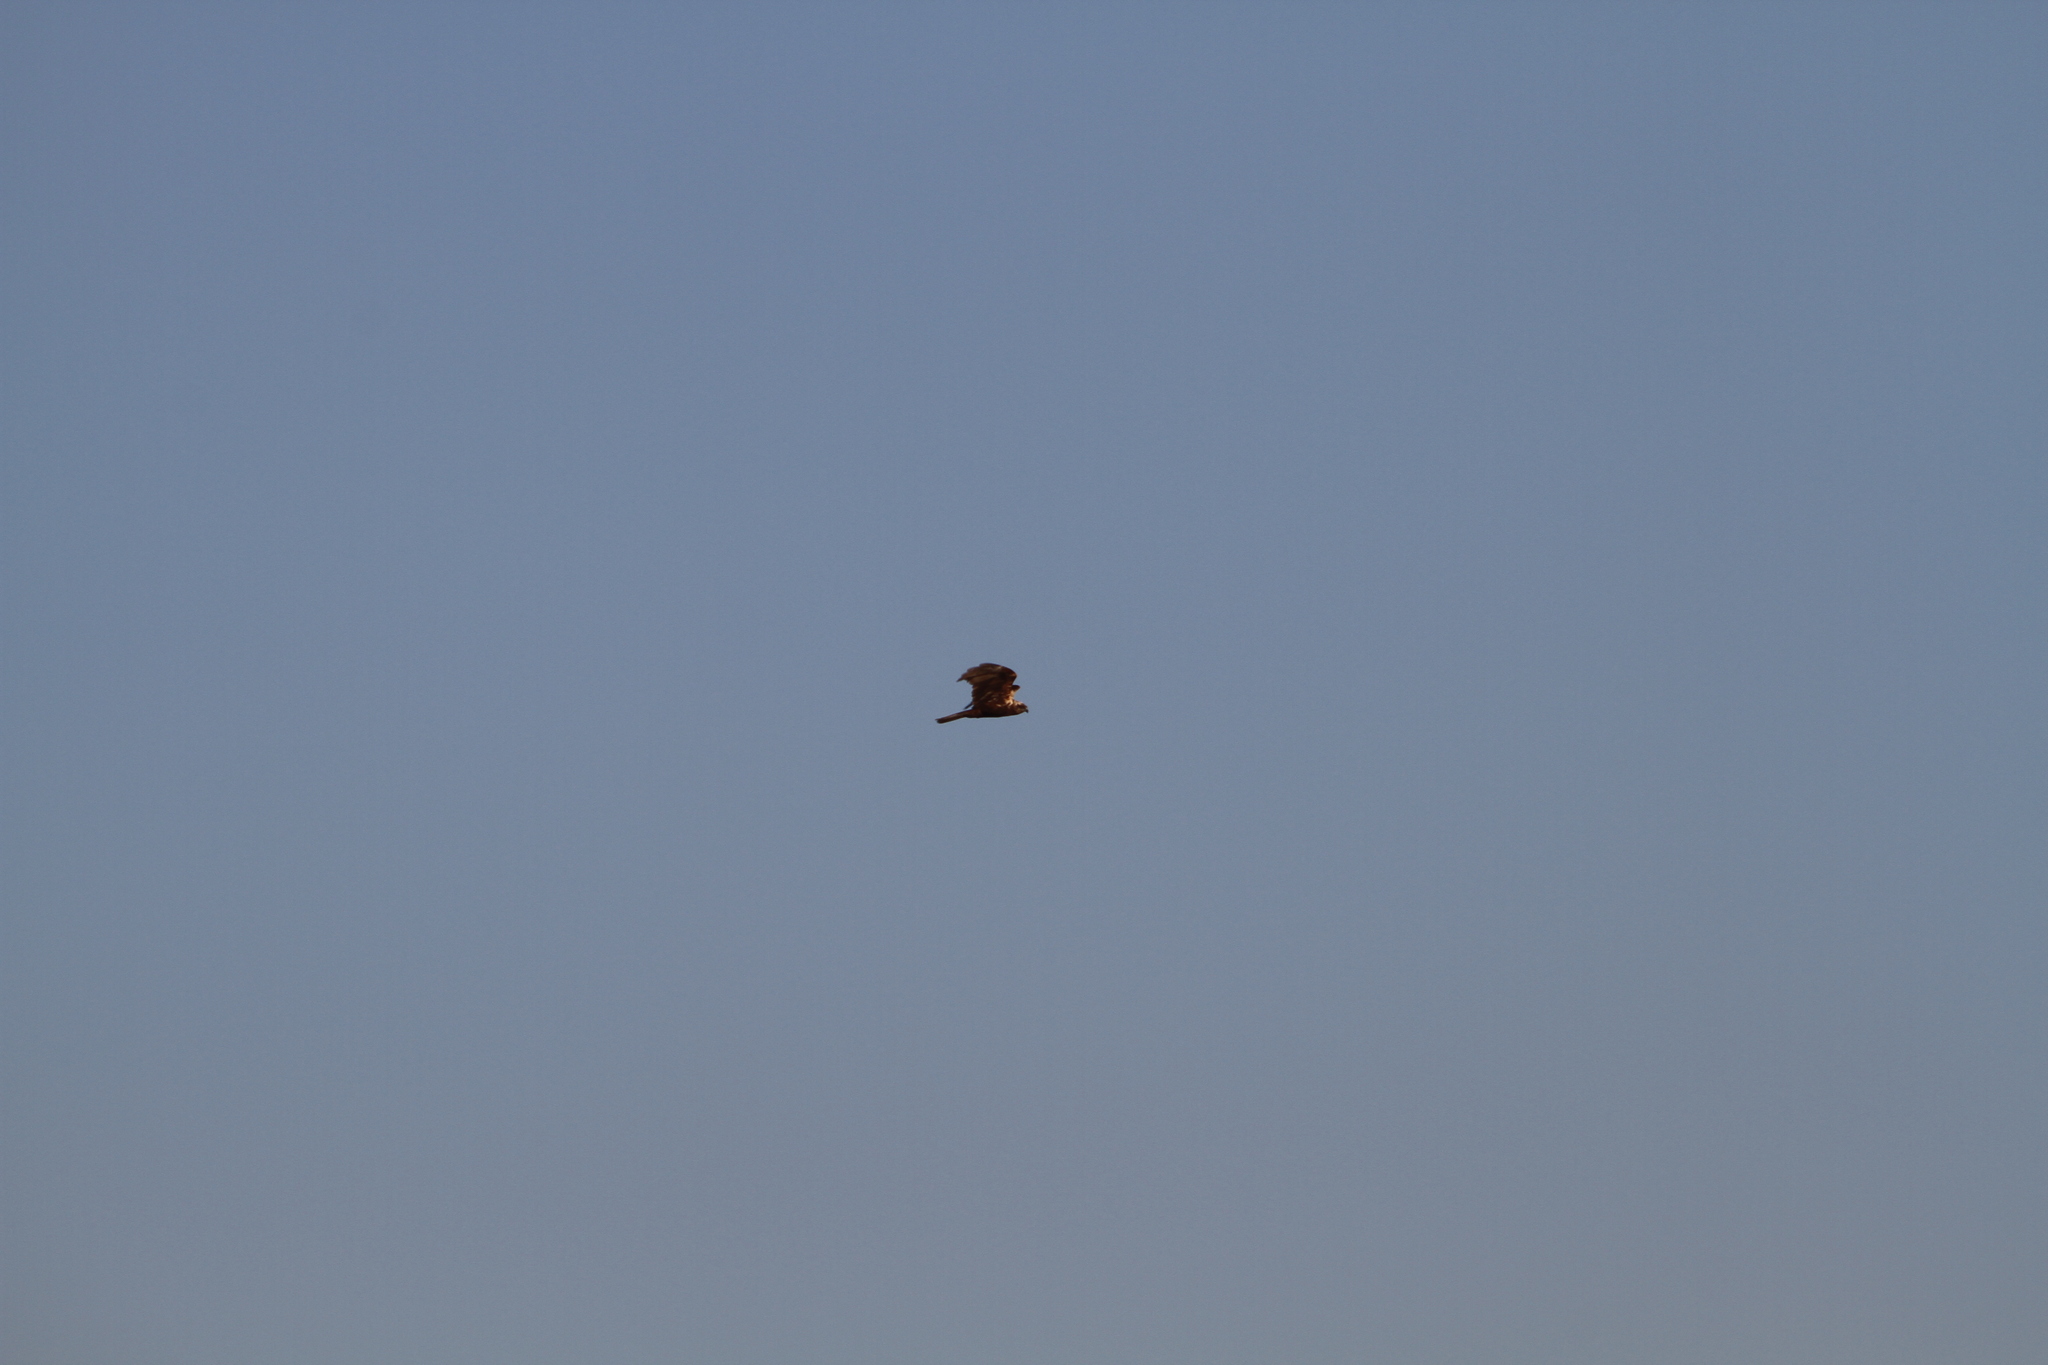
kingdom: Animalia
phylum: Chordata
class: Aves
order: Accipitriformes
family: Accipitridae
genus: Circus
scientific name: Circus aeruginosus
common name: Western marsh harrier
